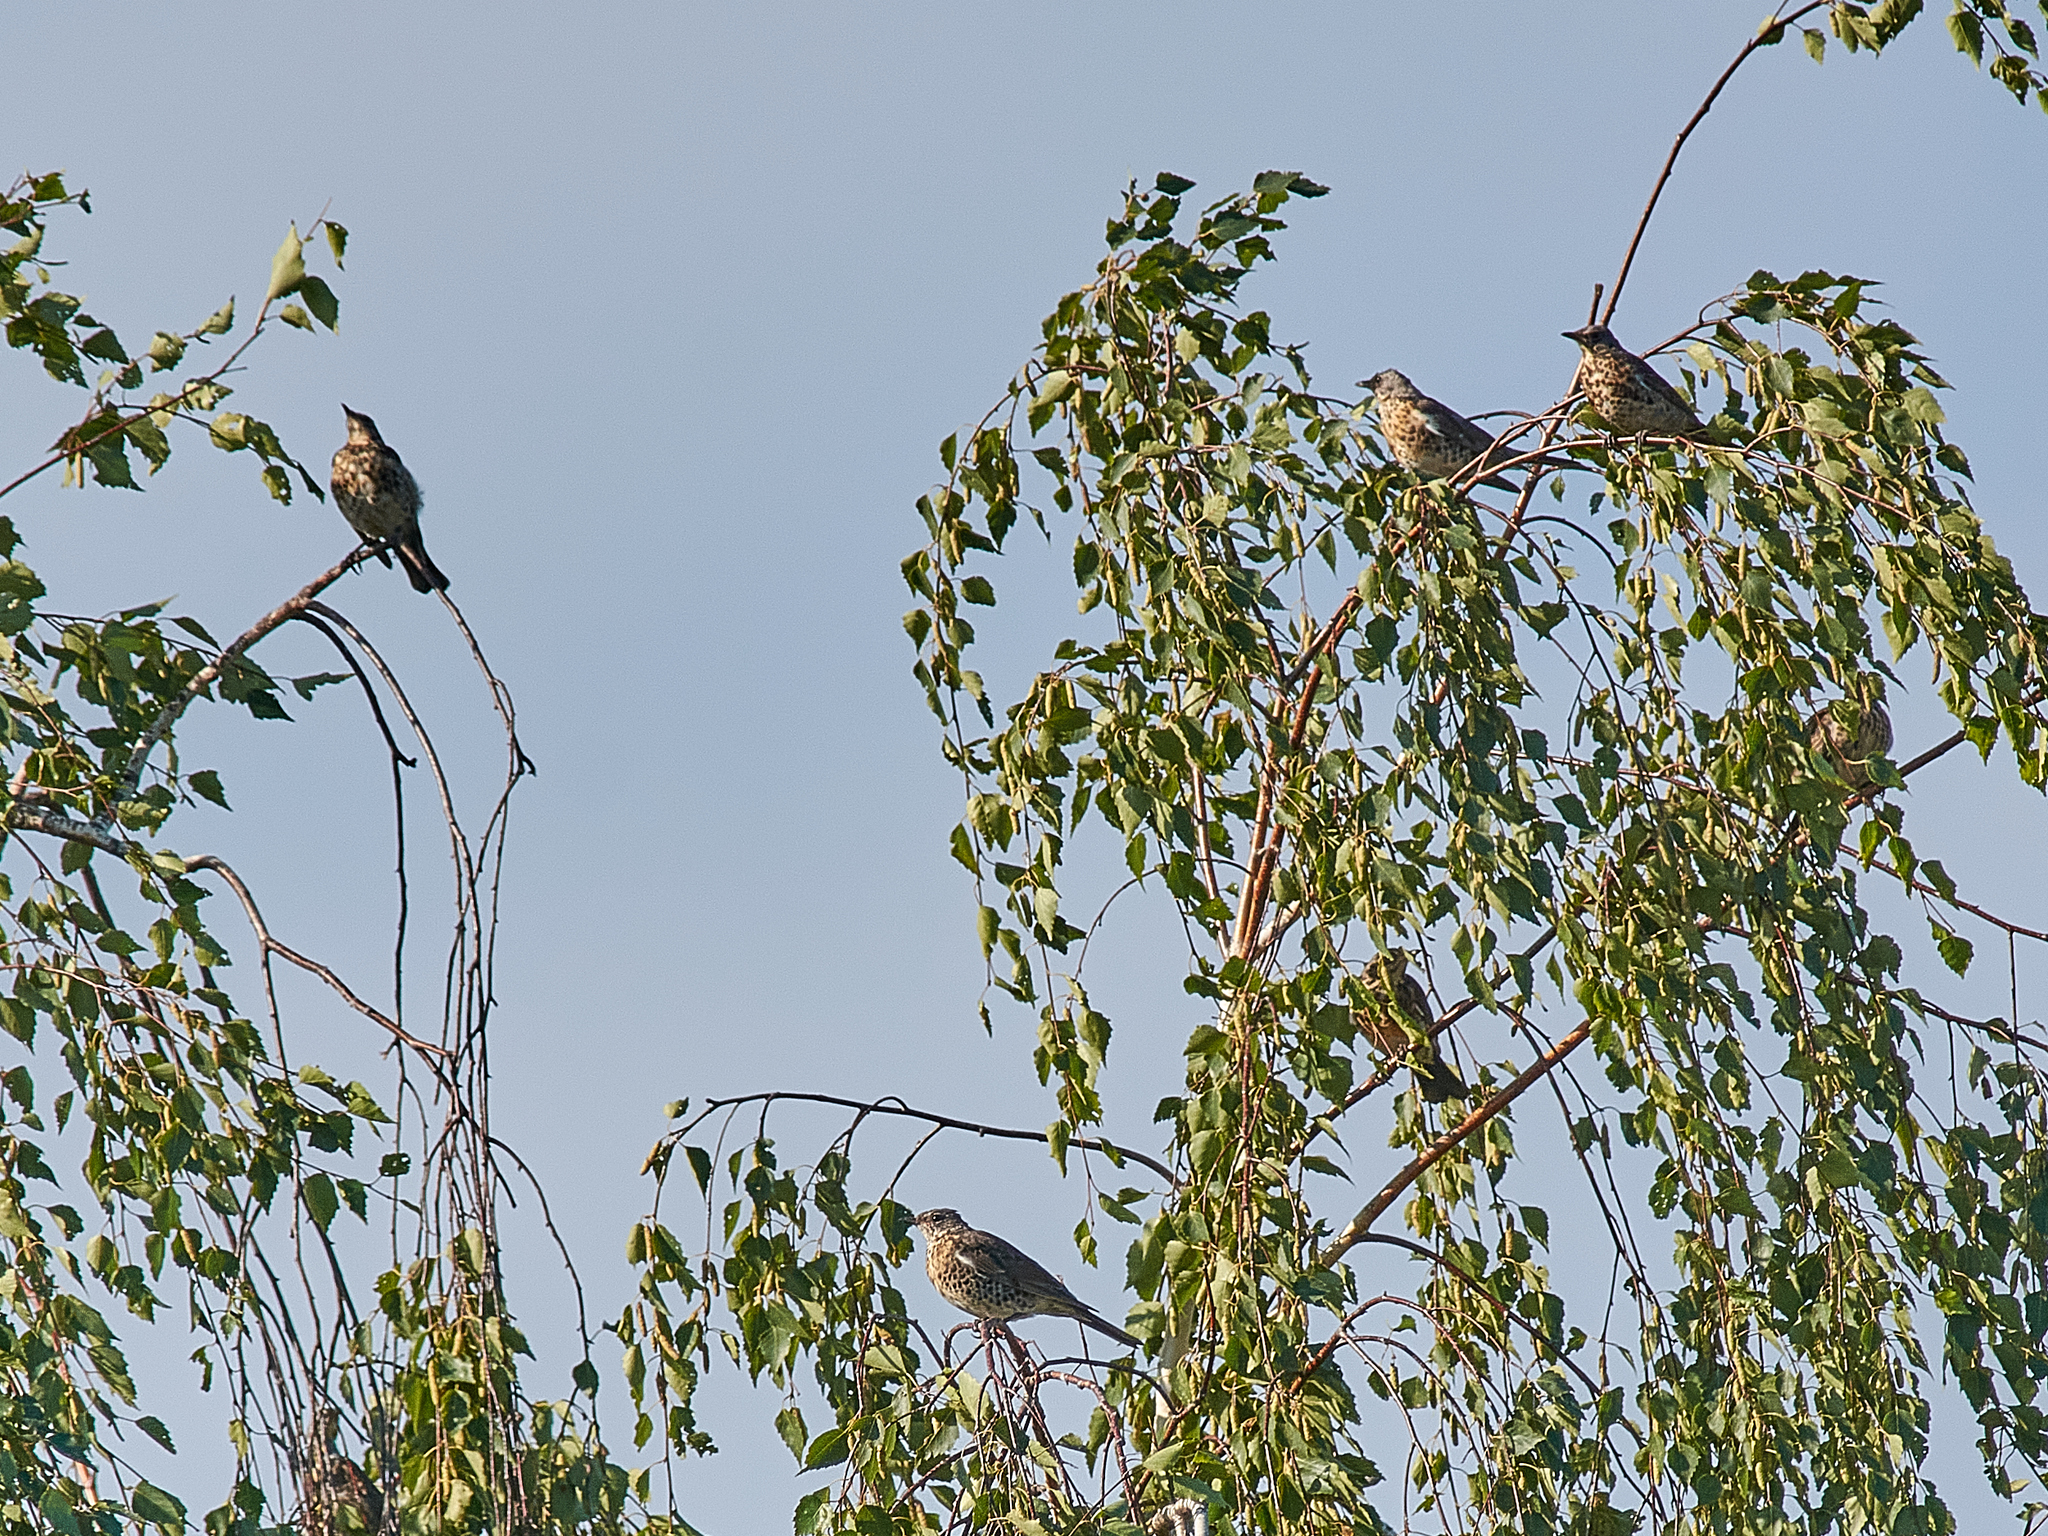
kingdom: Animalia
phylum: Chordata
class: Aves
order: Passeriformes
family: Turdidae
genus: Turdus
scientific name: Turdus pilaris
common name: Fieldfare
